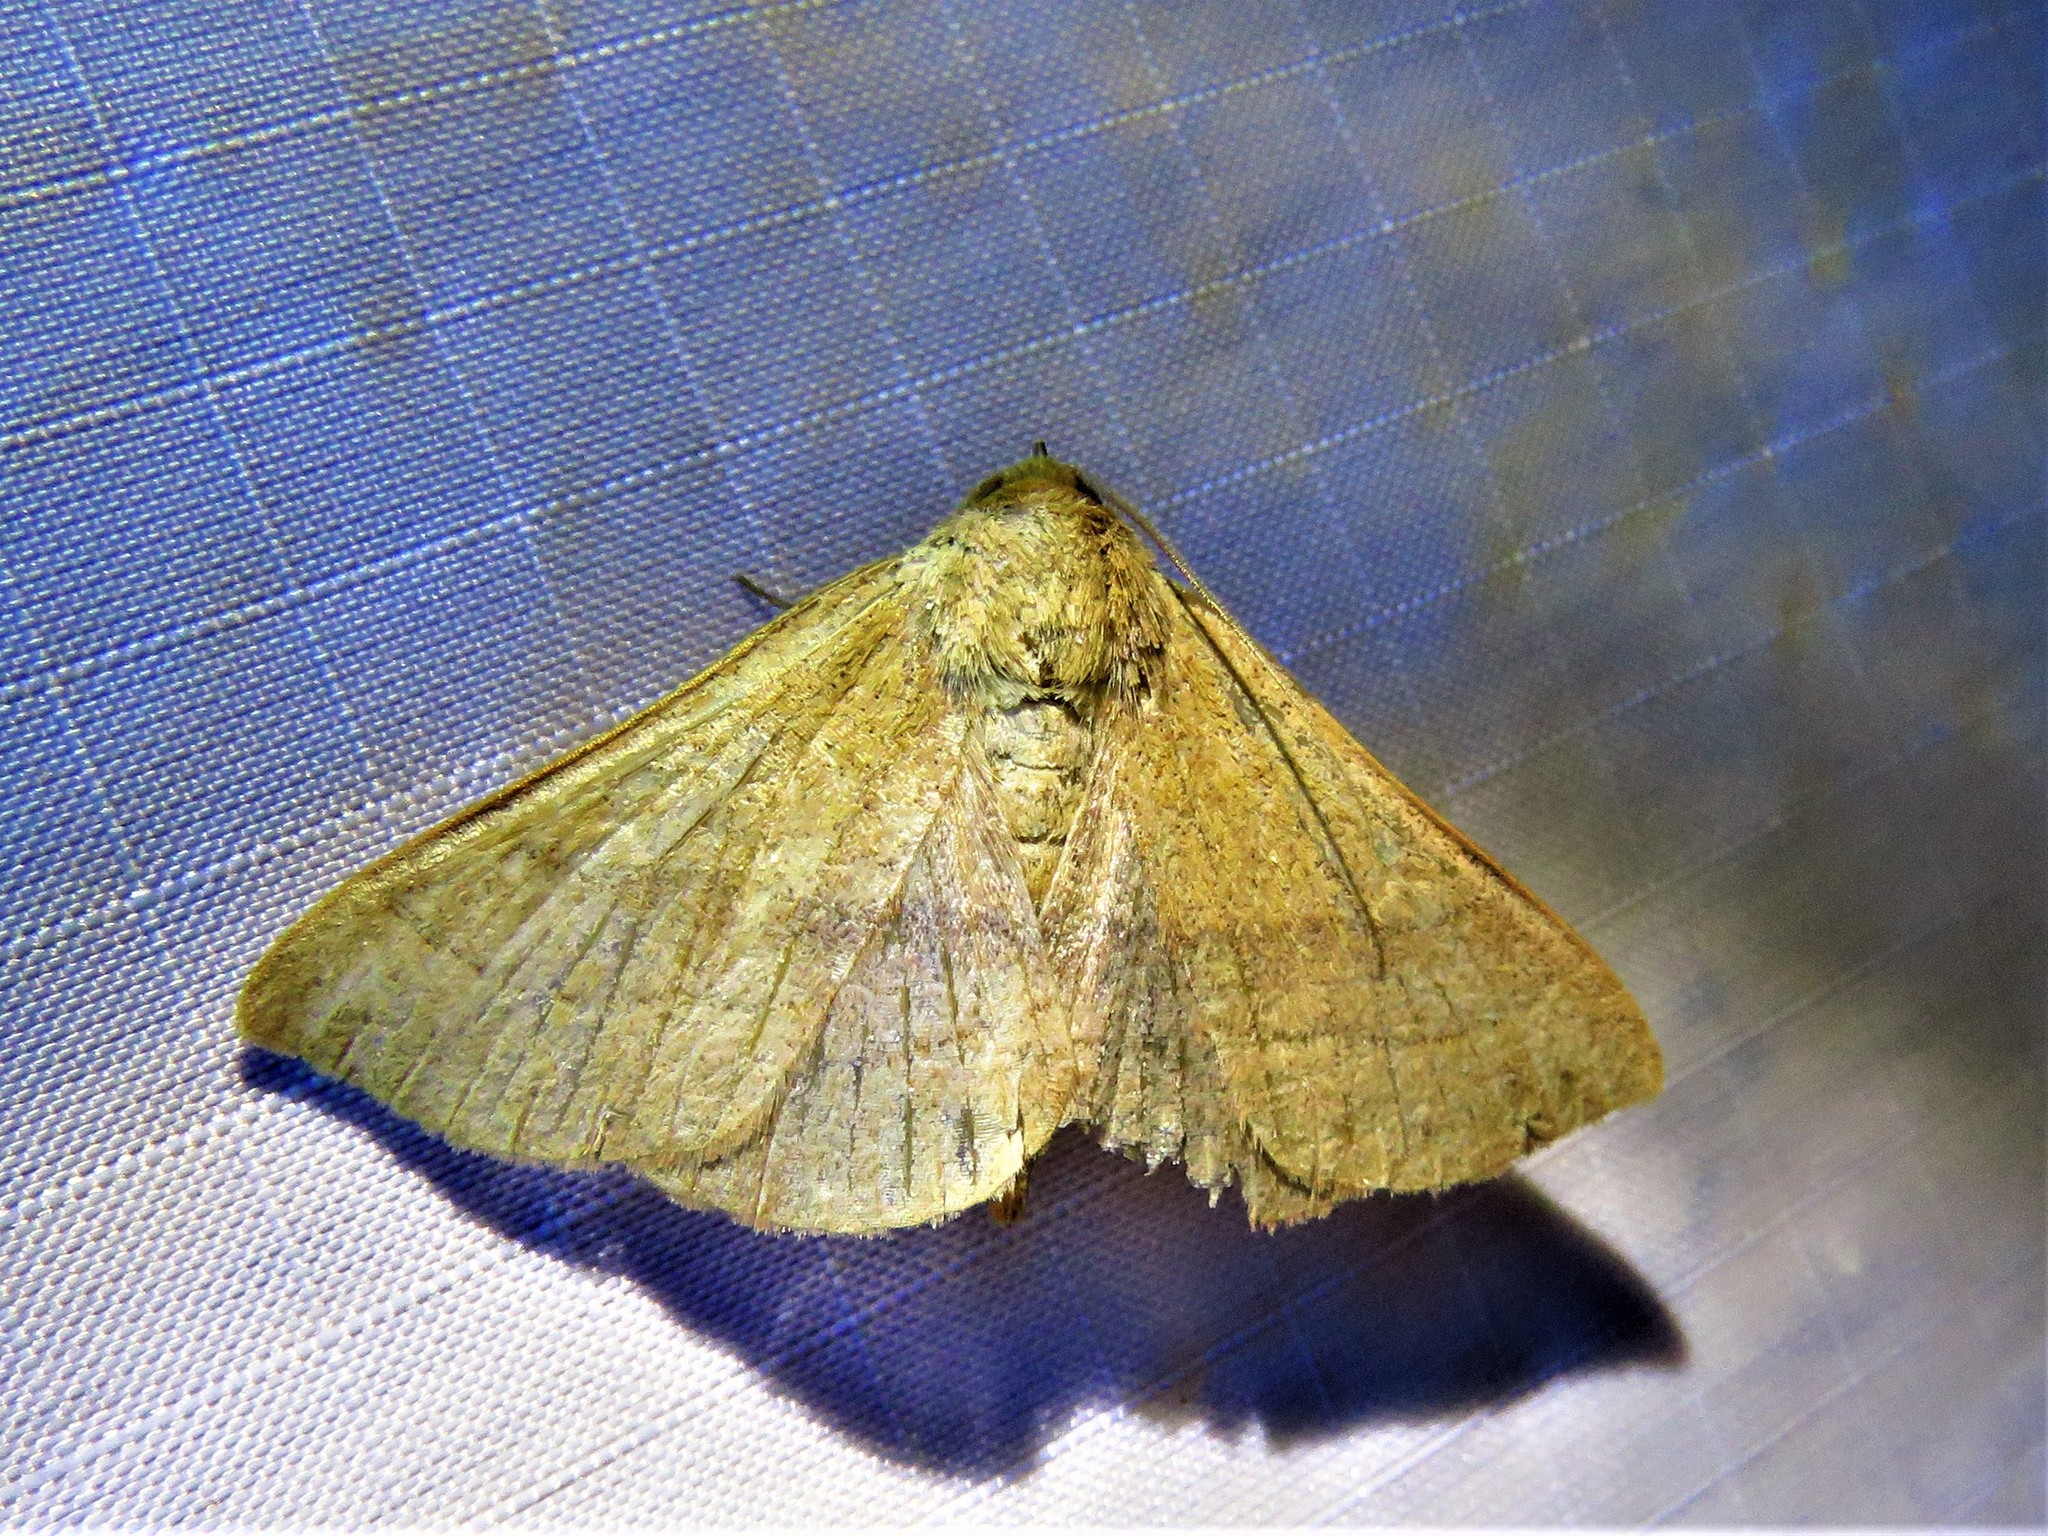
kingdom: Animalia
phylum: Arthropoda
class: Insecta
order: Lepidoptera
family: Erebidae
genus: Panopoda
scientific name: Panopoda rufimargo
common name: Red-lined panopoda moth
